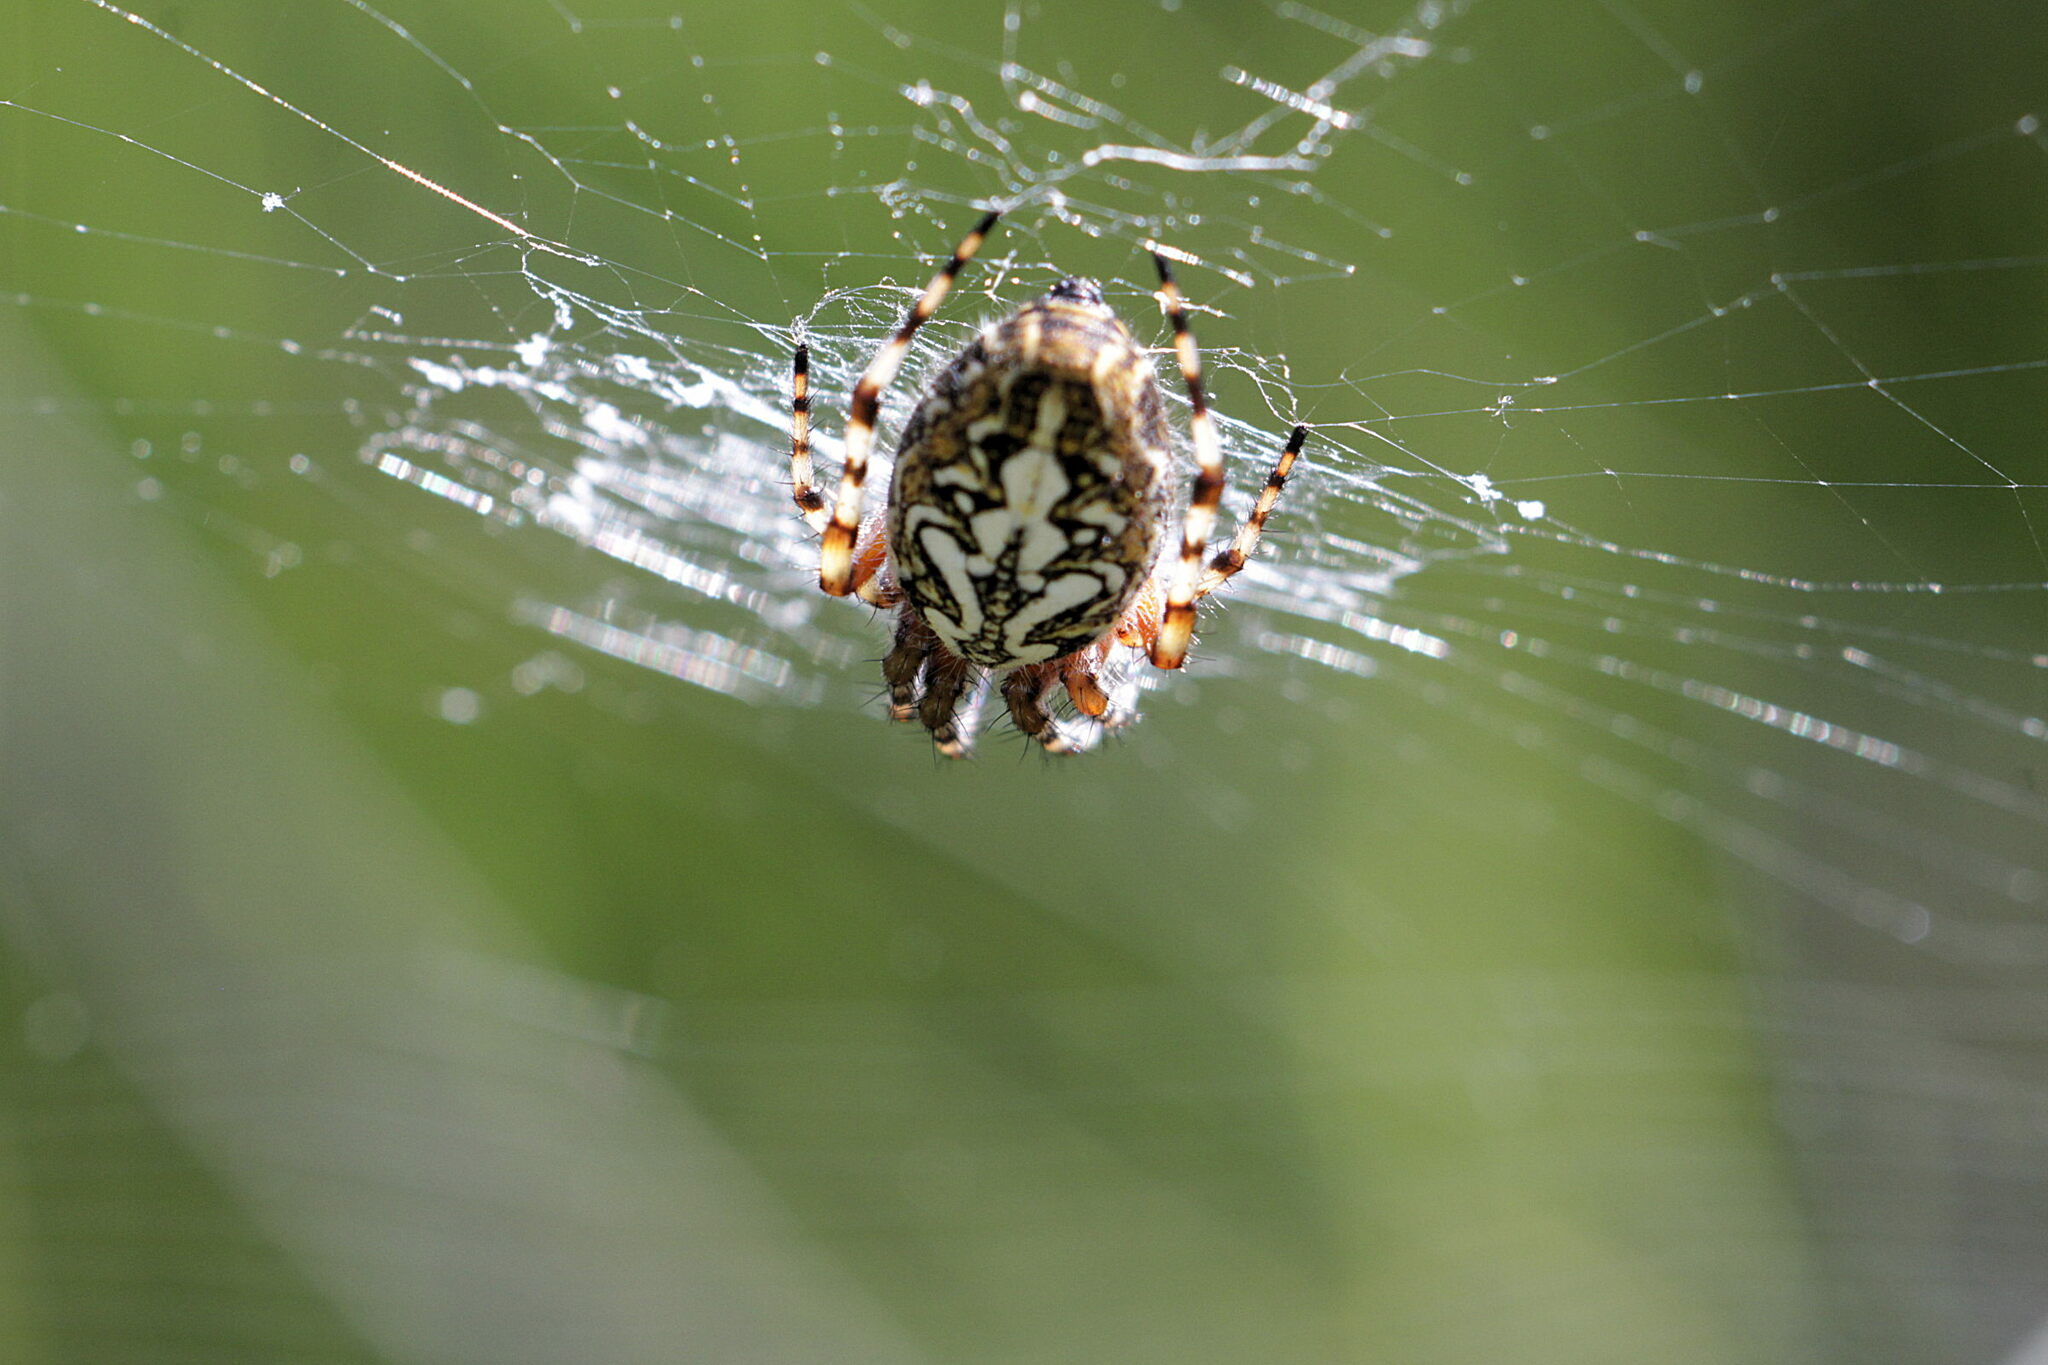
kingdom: Animalia
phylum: Arthropoda
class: Arachnida
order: Araneae
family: Araneidae
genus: Aculepeira
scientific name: Aculepeira ceropegia
